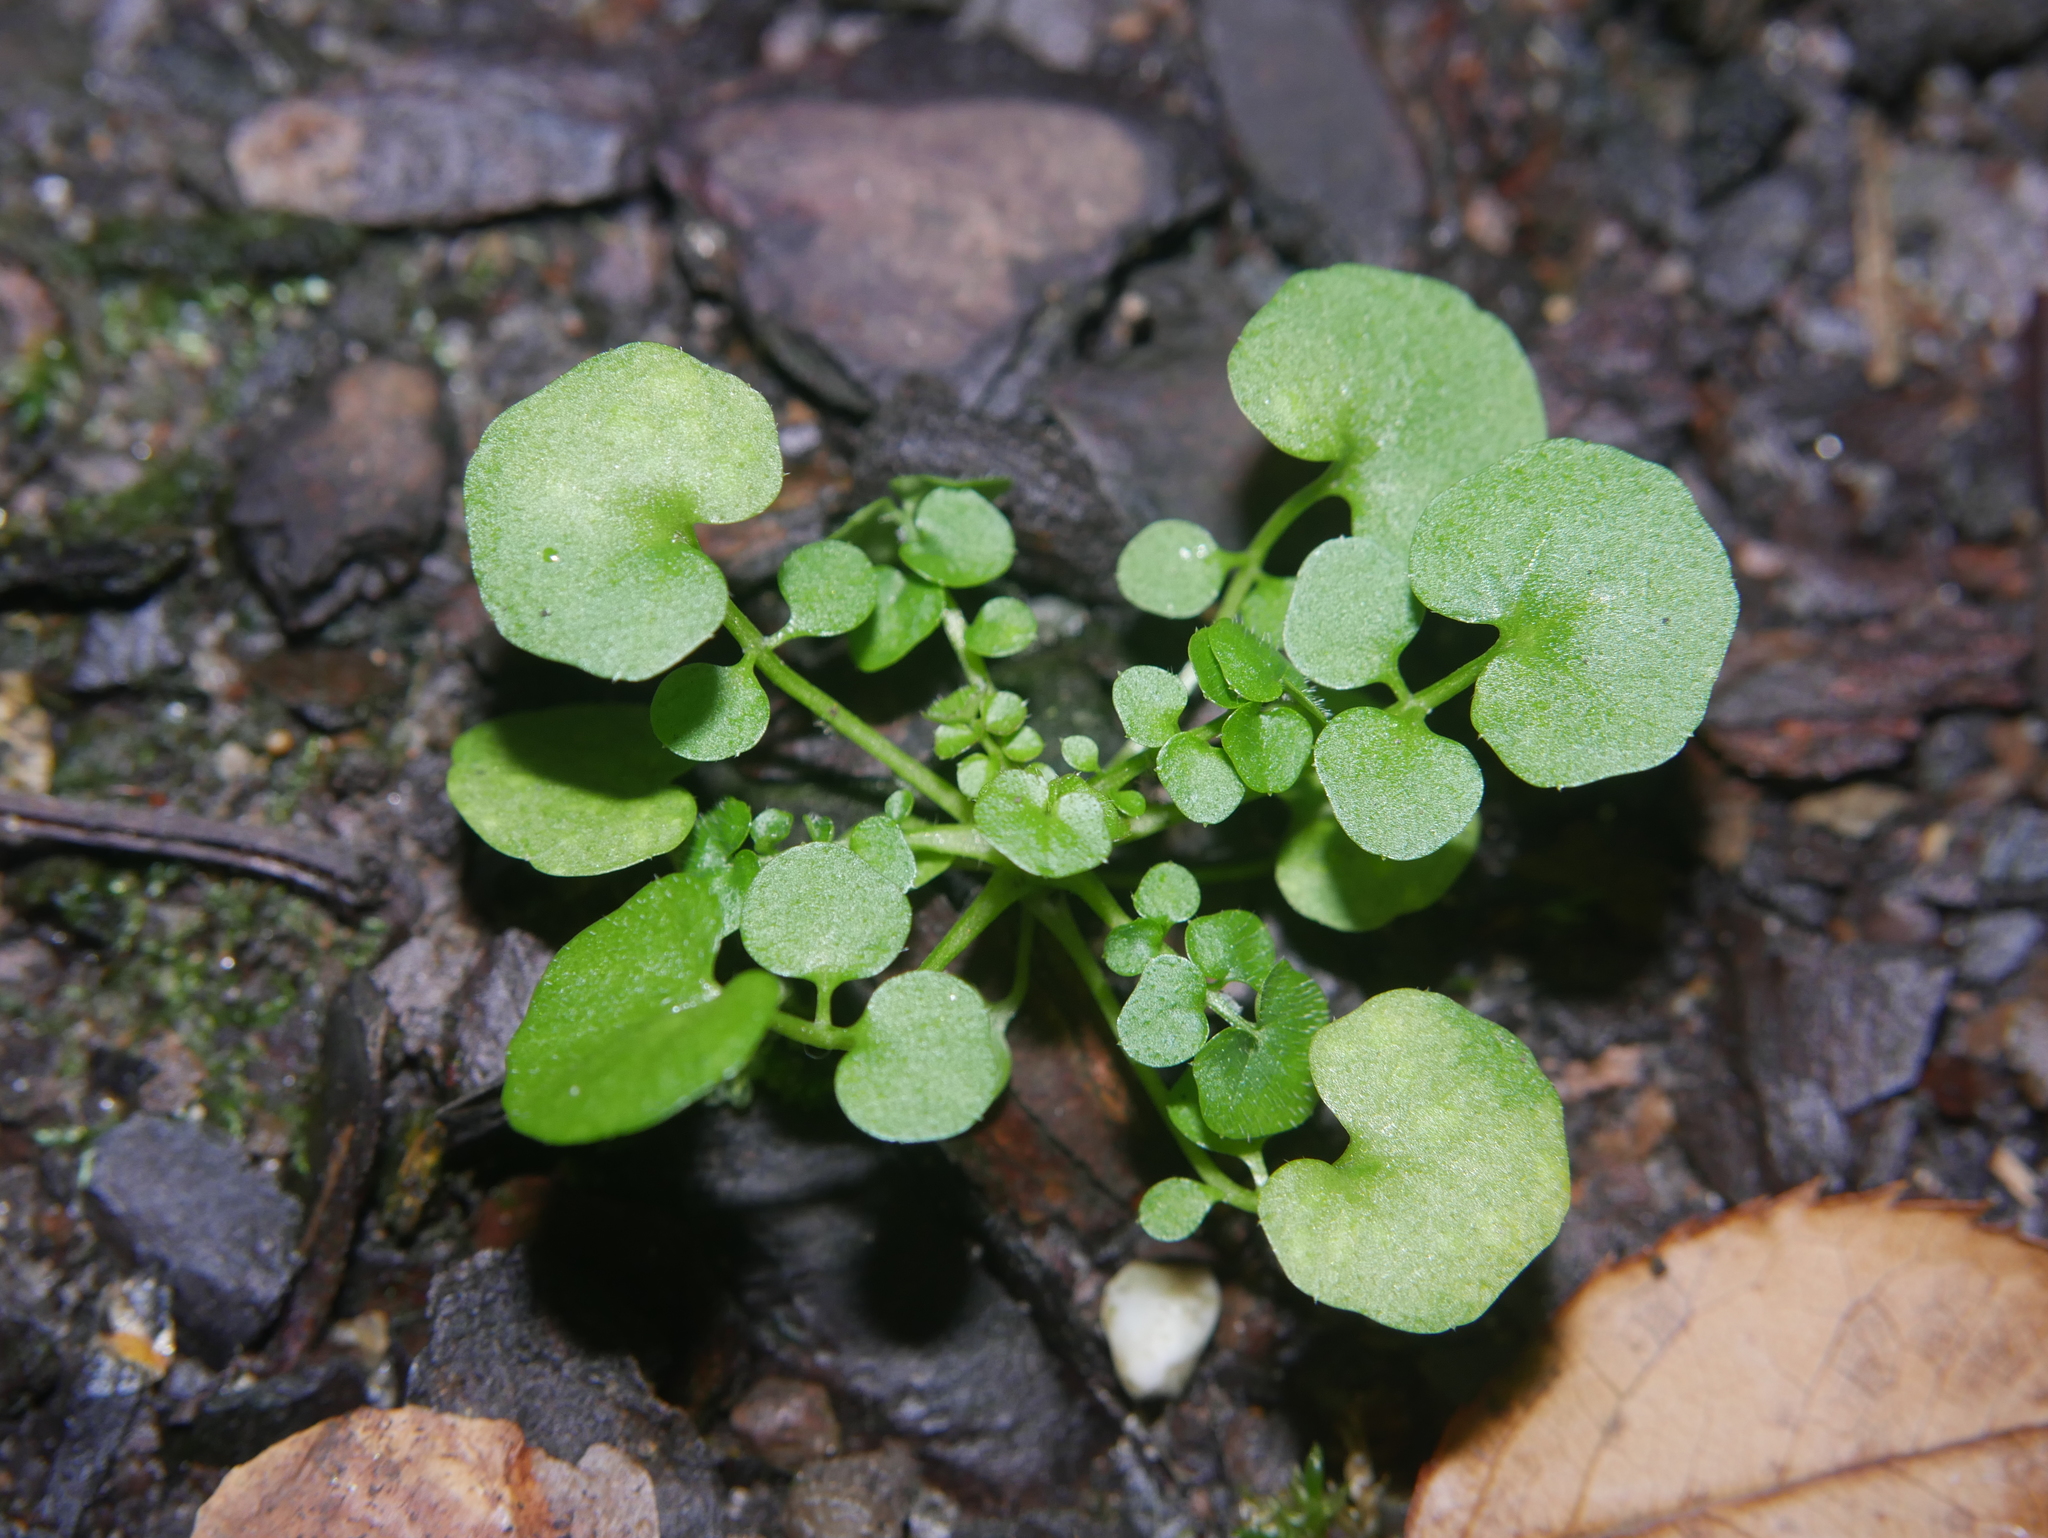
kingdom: Plantae
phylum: Tracheophyta
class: Magnoliopsida
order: Brassicales
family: Brassicaceae
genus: Cardamine
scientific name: Cardamine hirsuta
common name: Hairy bittercress
